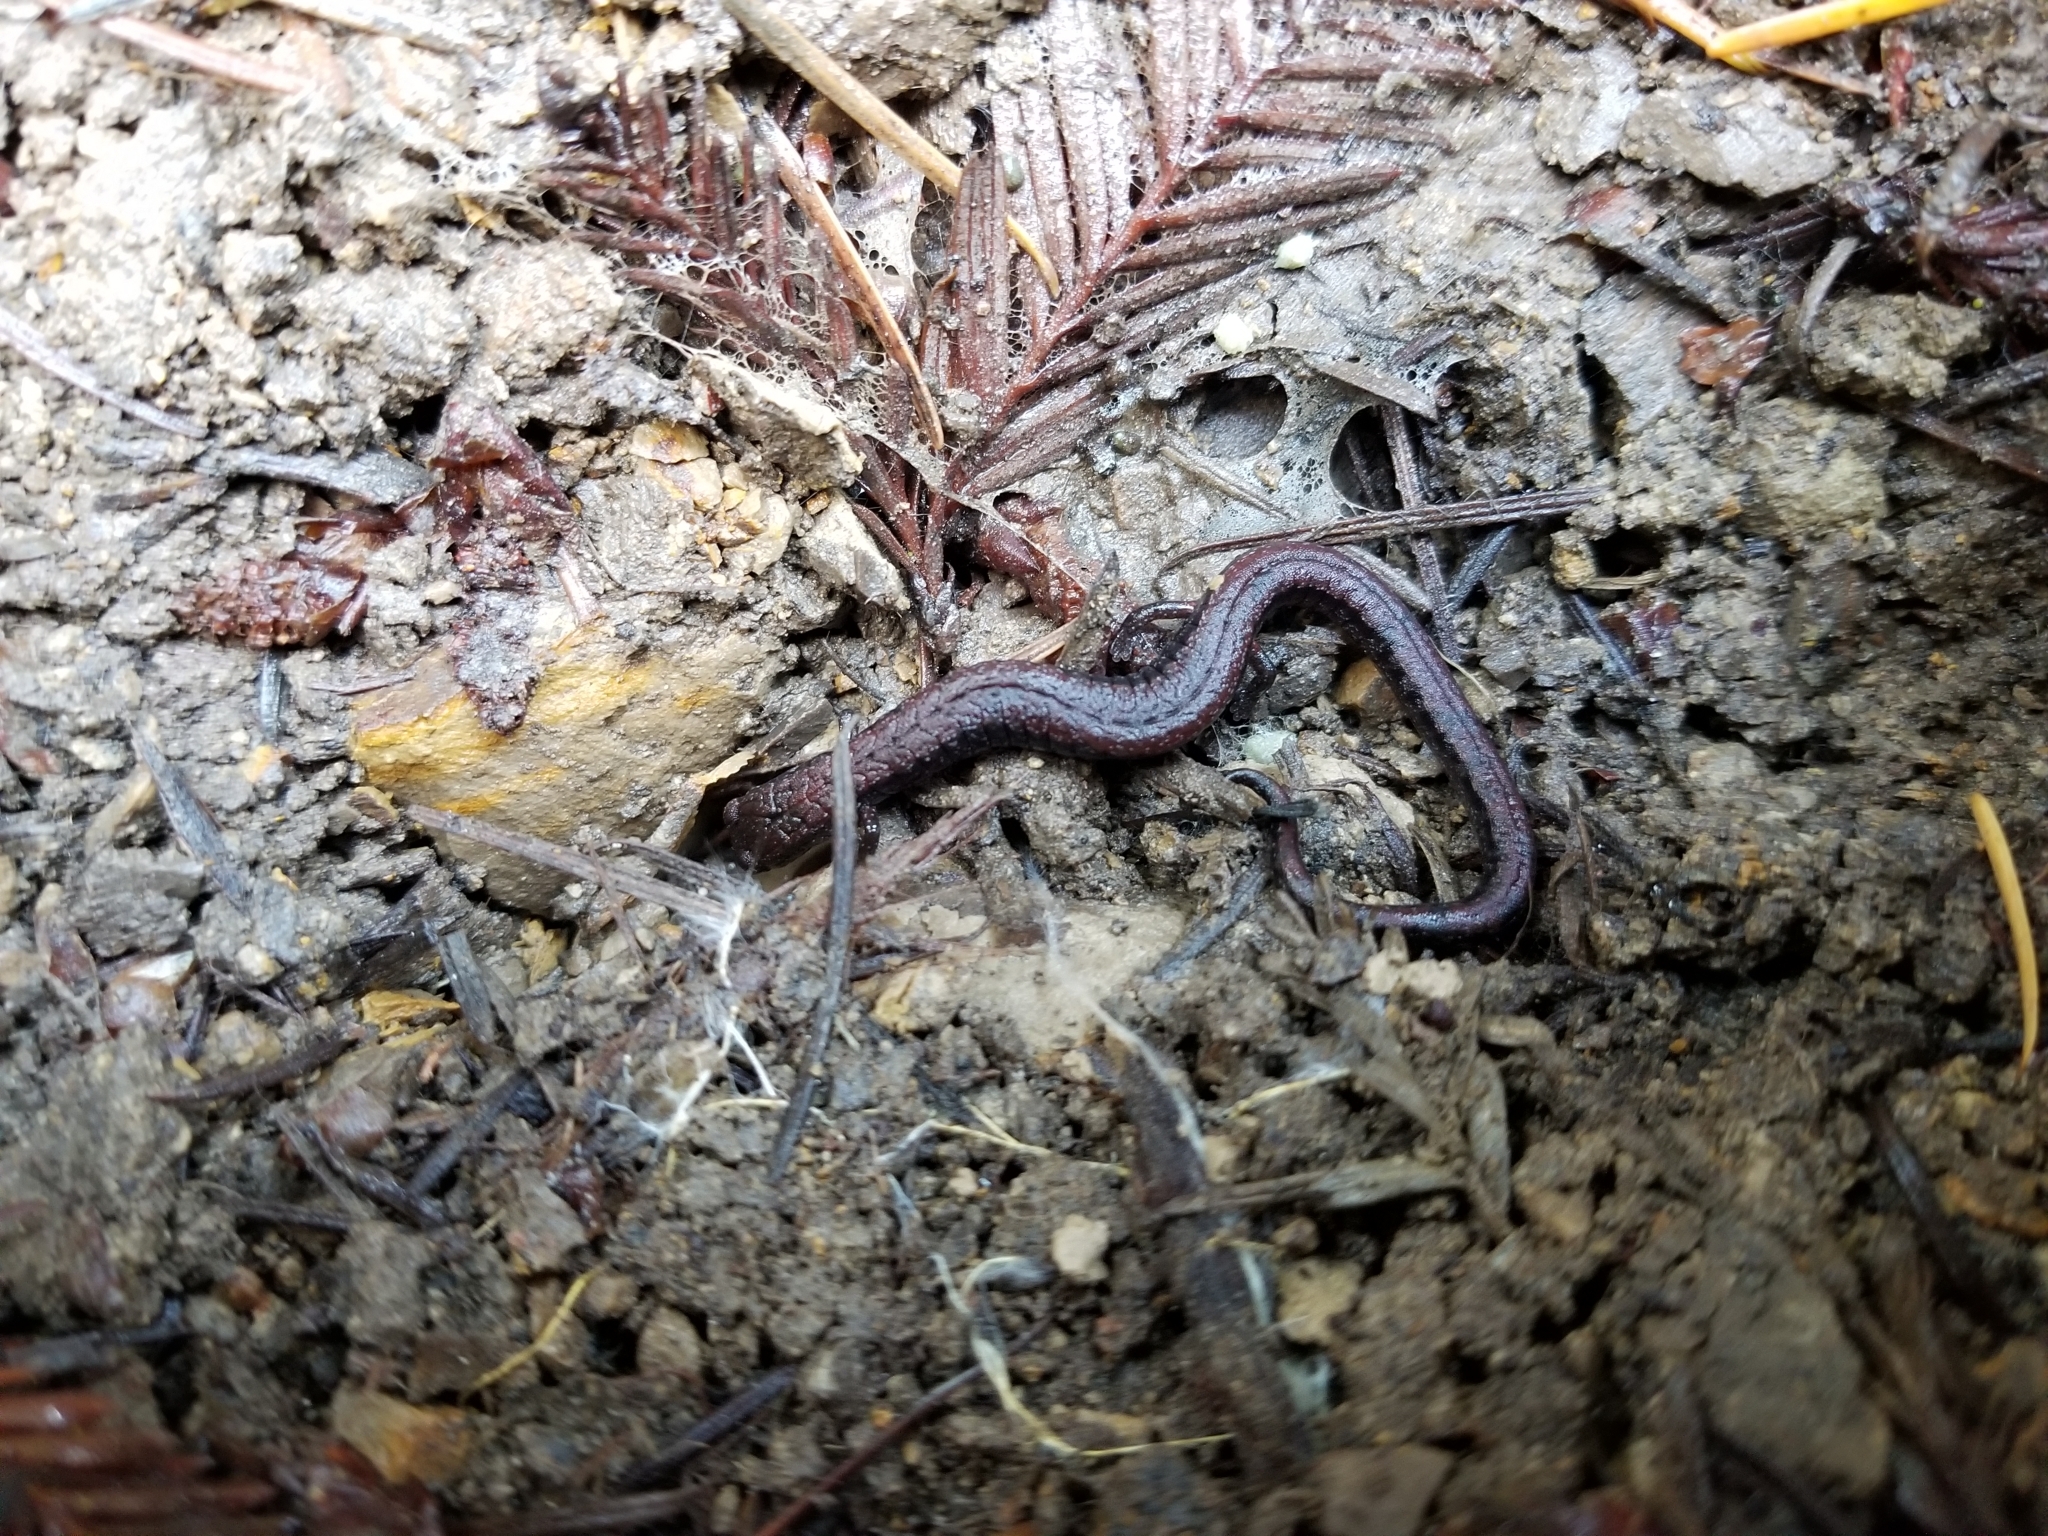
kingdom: Animalia
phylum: Chordata
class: Amphibia
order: Caudata
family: Plethodontidae
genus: Batrachoseps
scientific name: Batrachoseps attenuatus
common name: California slender salamander
